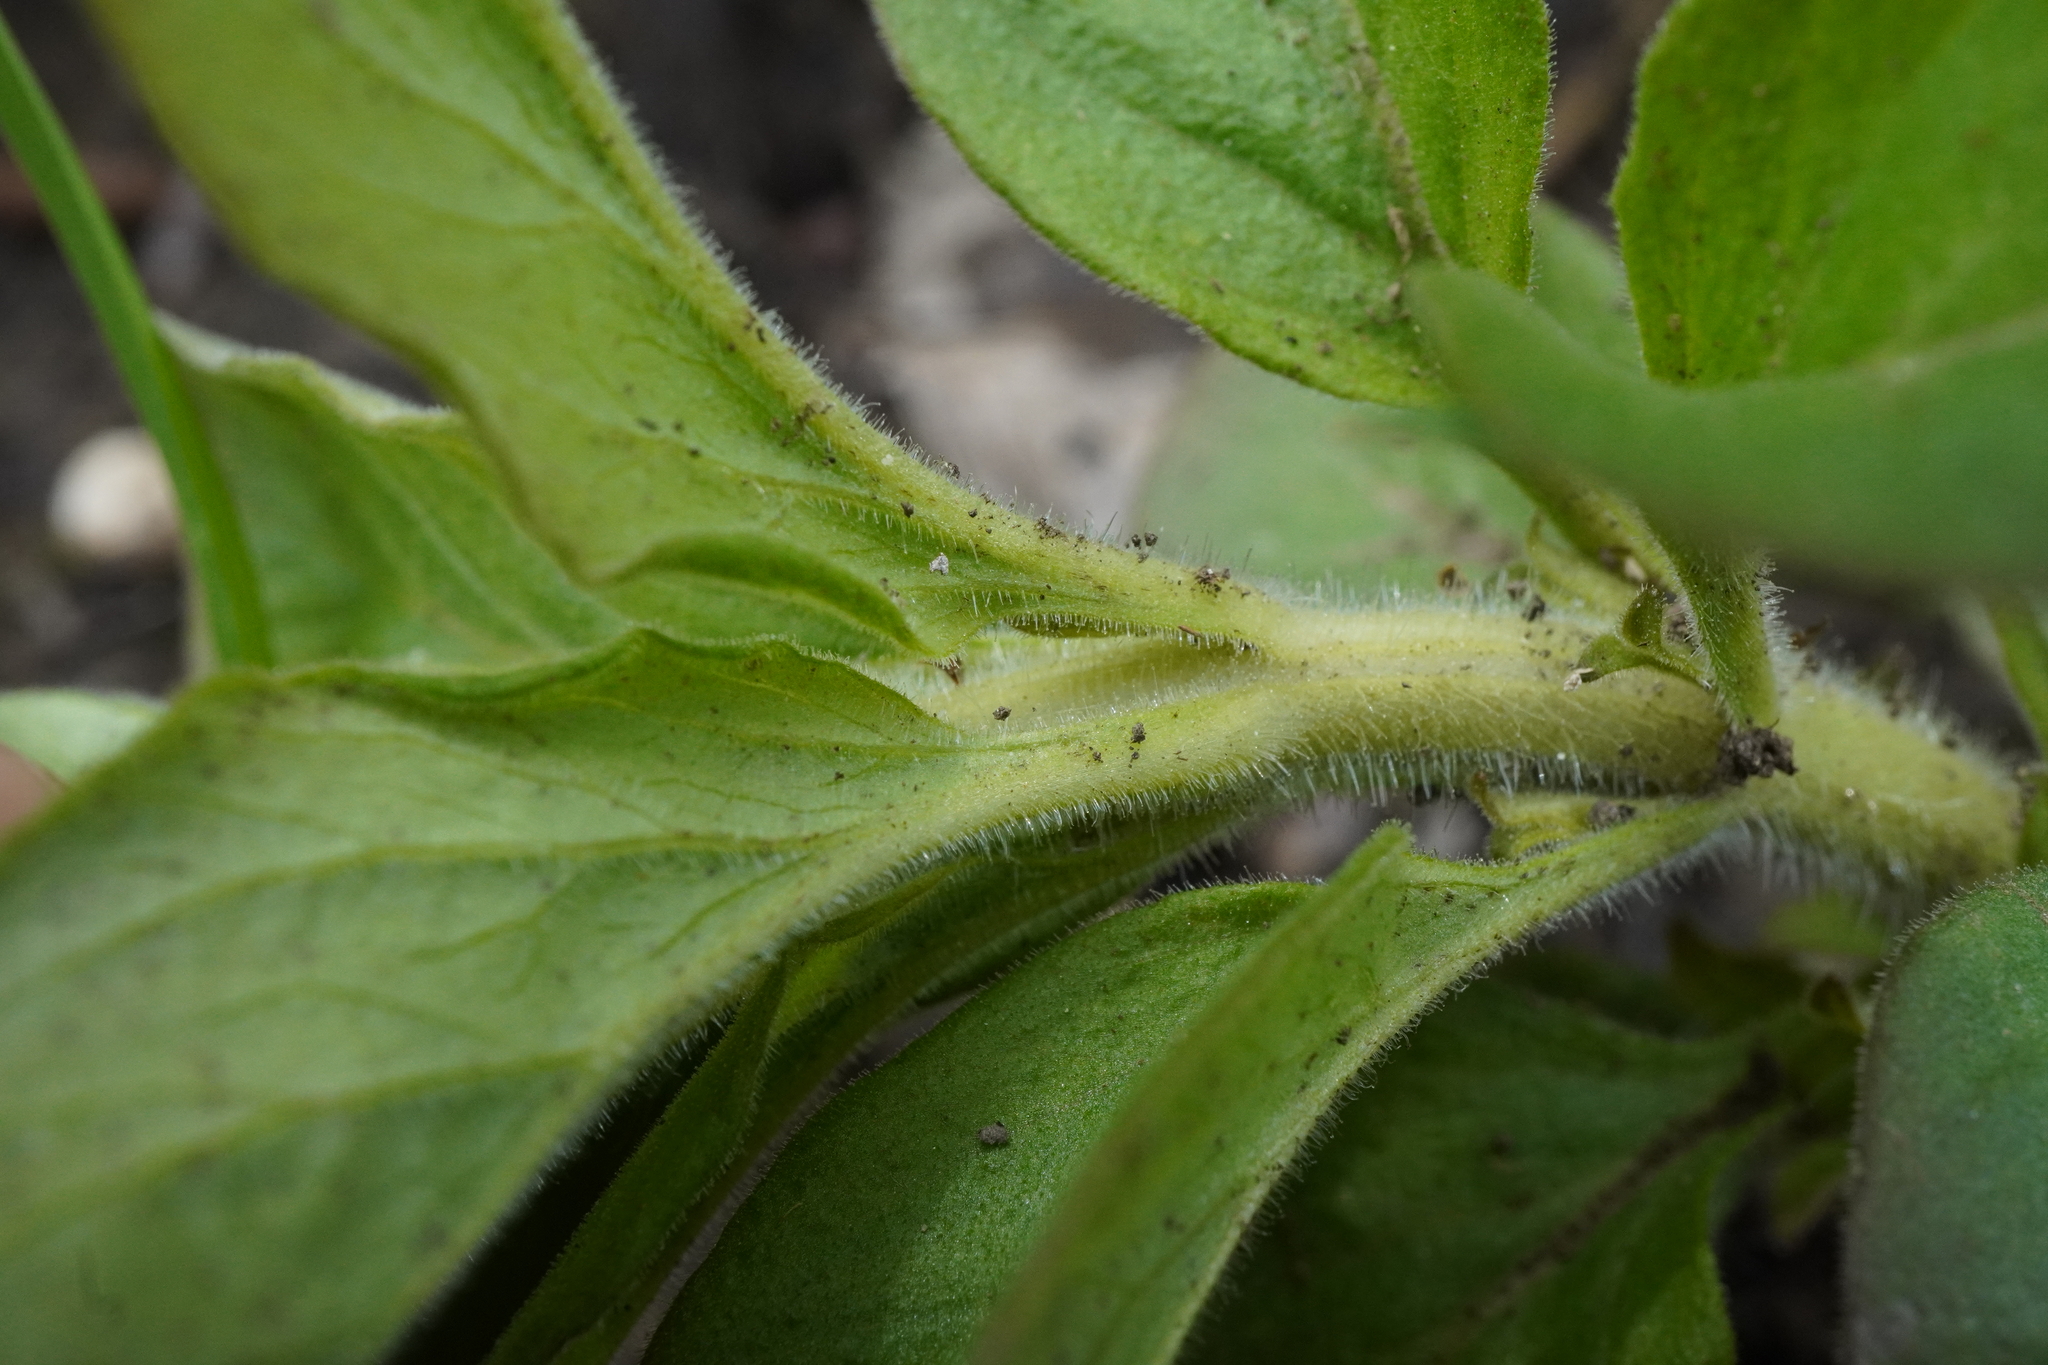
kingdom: Plantae
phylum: Tracheophyta
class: Magnoliopsida
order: Ericales
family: Primulaceae
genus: Lysimachia
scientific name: Lysimachia punctata
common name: Dotted loosestrife
